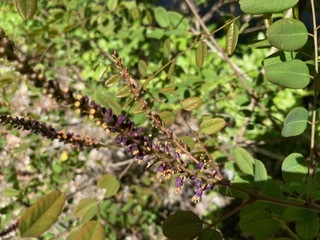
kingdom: Plantae
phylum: Tracheophyta
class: Magnoliopsida
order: Fabales
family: Fabaceae
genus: Amorpha
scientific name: Amorpha fruticosa
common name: False indigo
